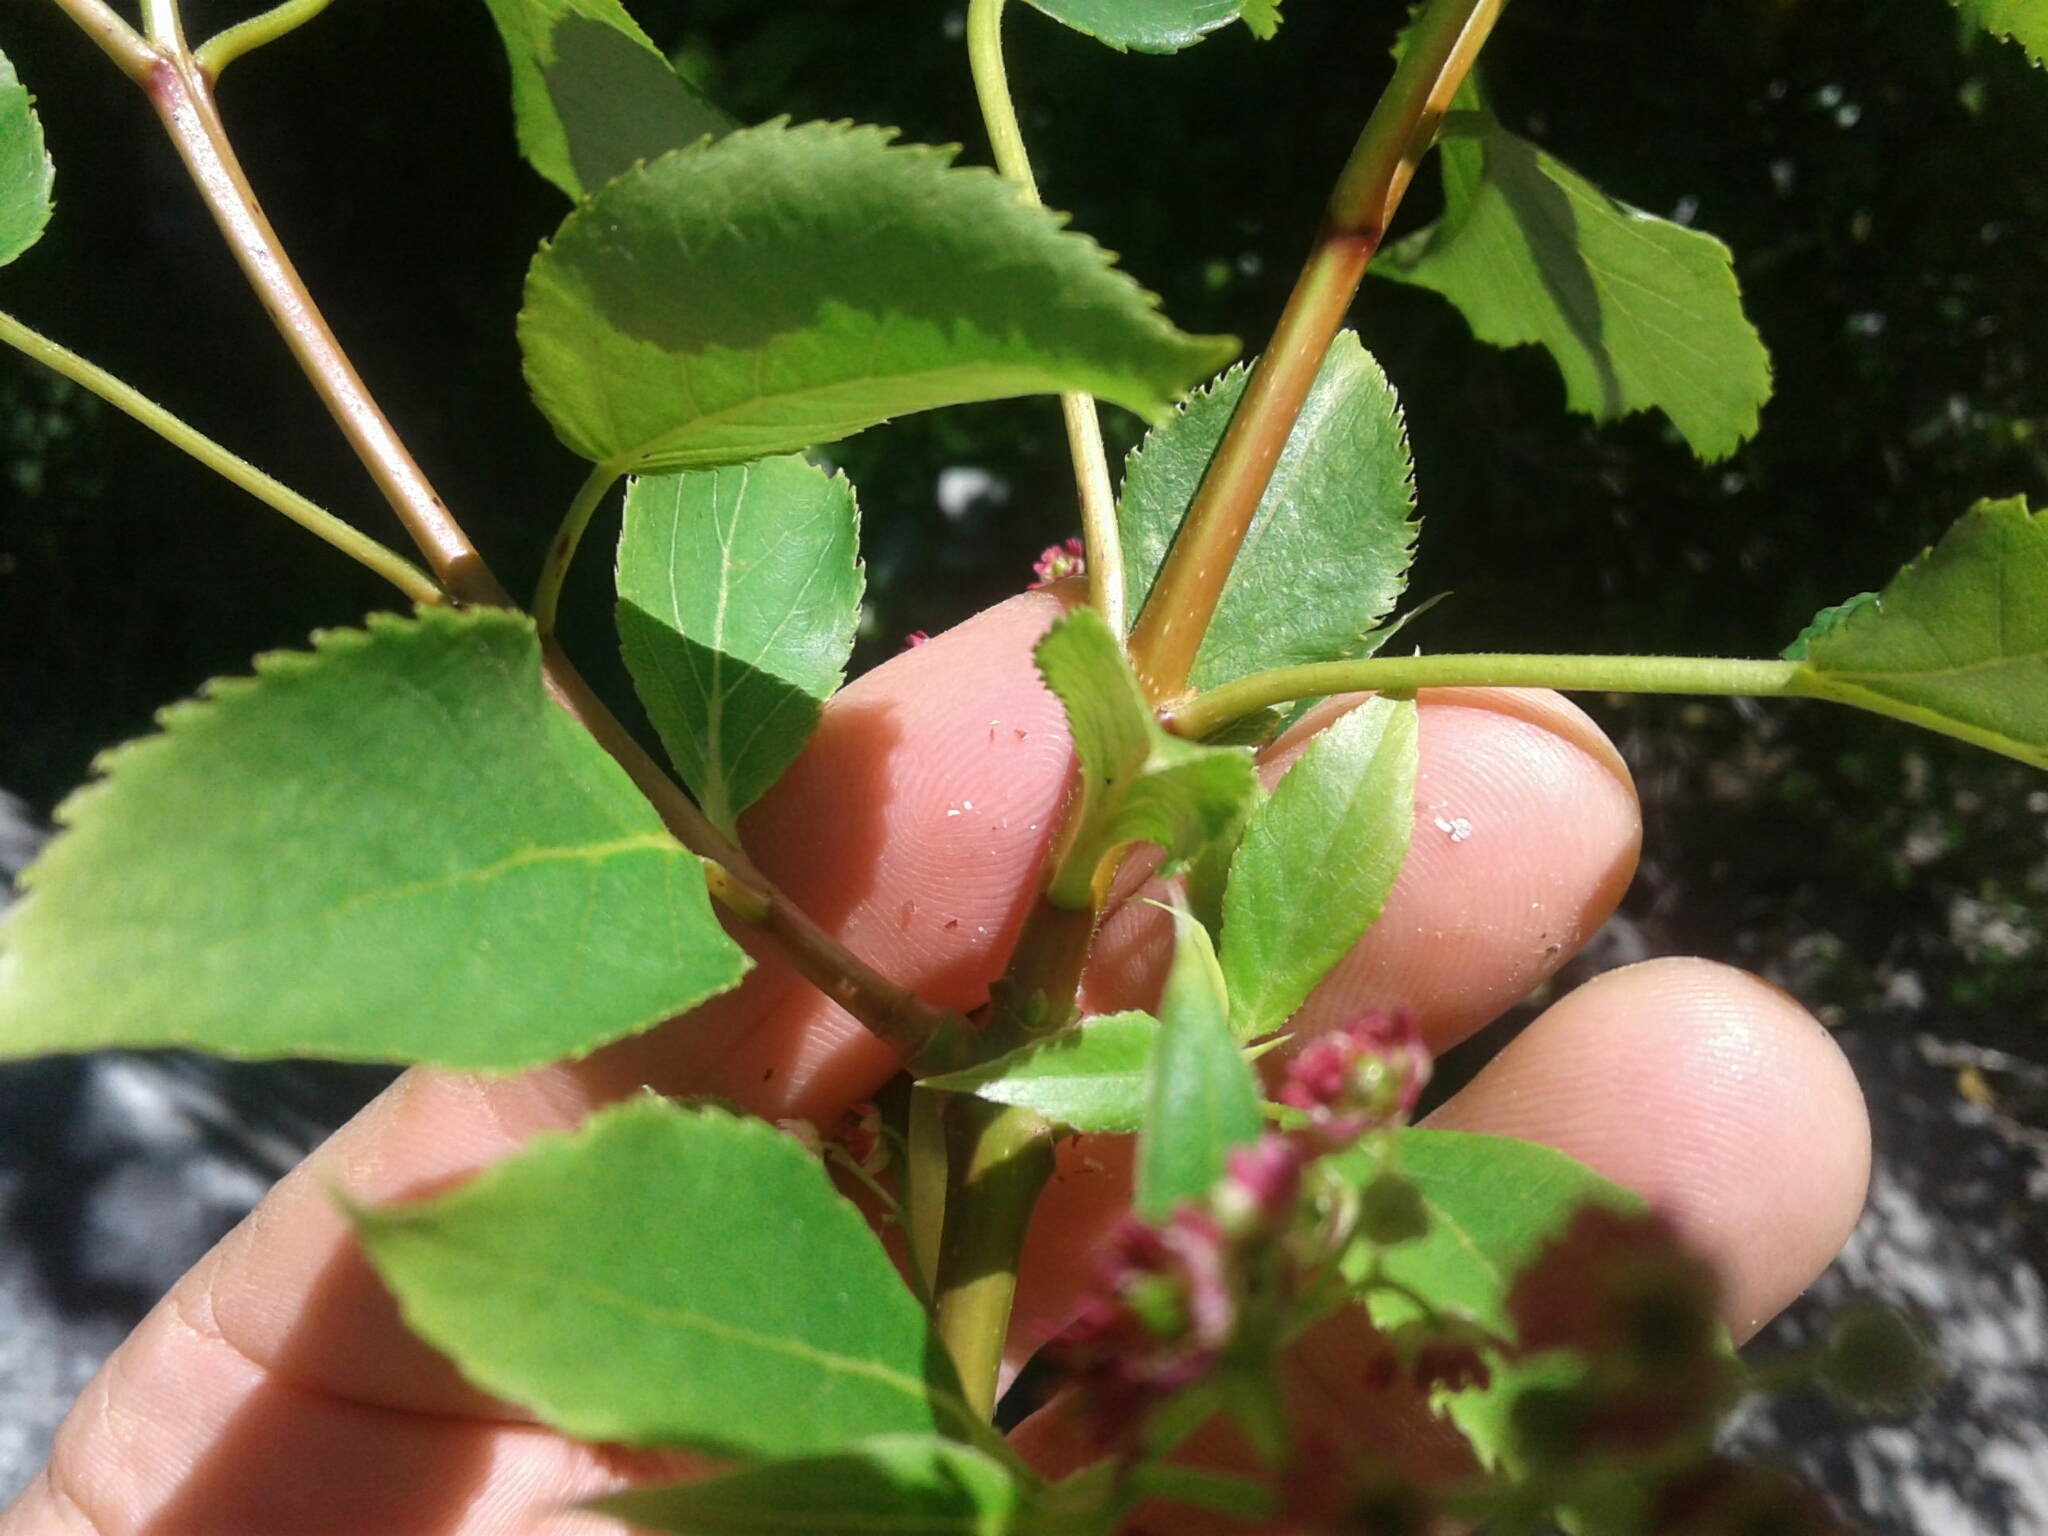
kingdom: Plantae
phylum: Tracheophyta
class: Magnoliopsida
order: Oxalidales
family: Elaeocarpaceae
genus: Aristotelia
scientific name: Aristotelia serrata
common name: New zealand wineberry
